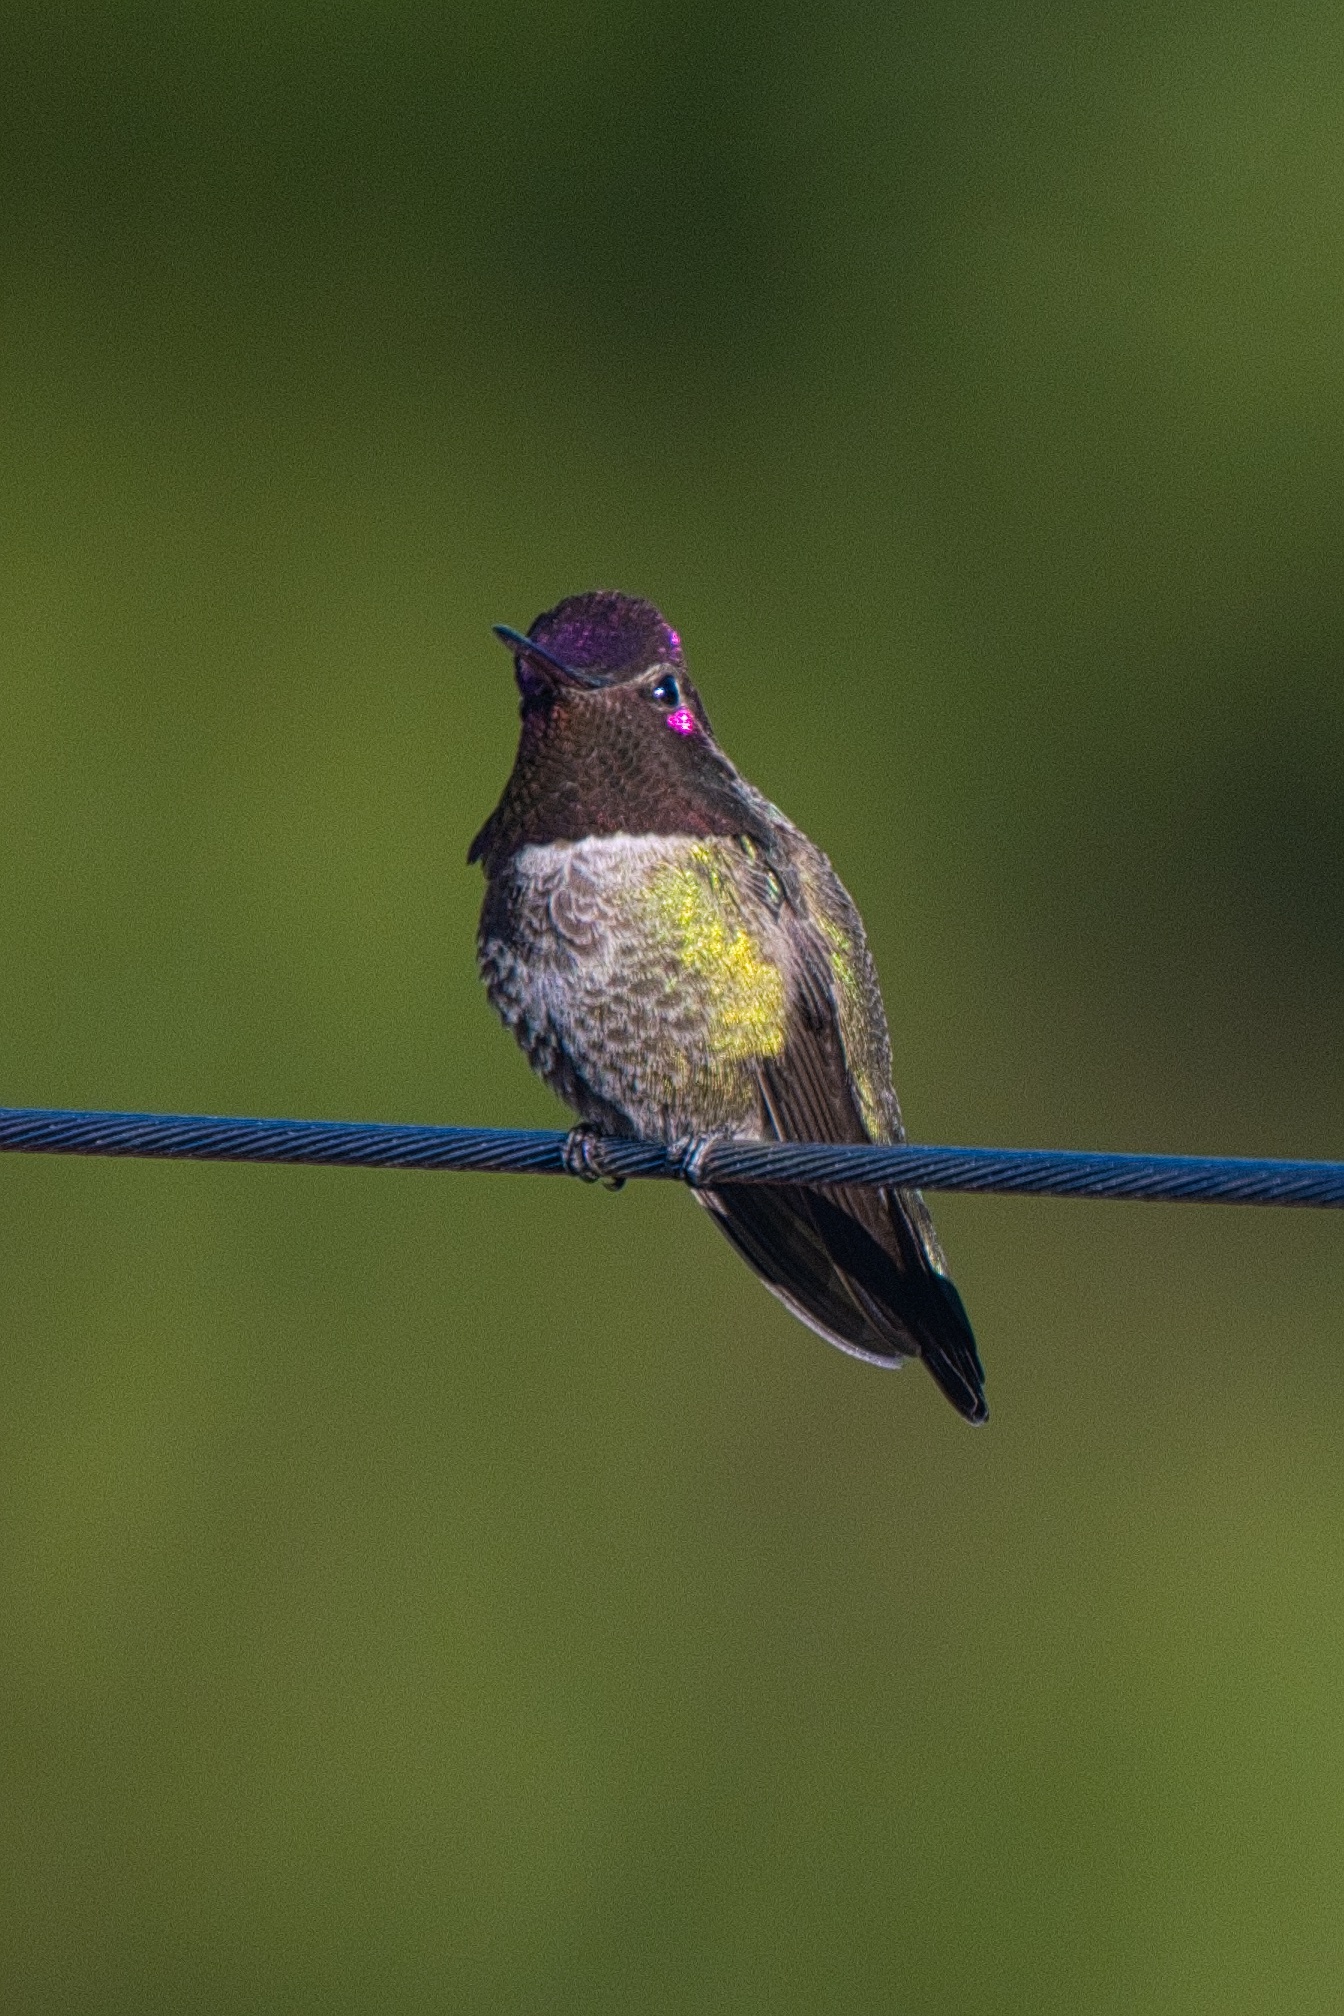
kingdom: Animalia
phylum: Chordata
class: Aves
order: Apodiformes
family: Trochilidae
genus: Calypte
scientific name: Calypte anna
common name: Anna's hummingbird
